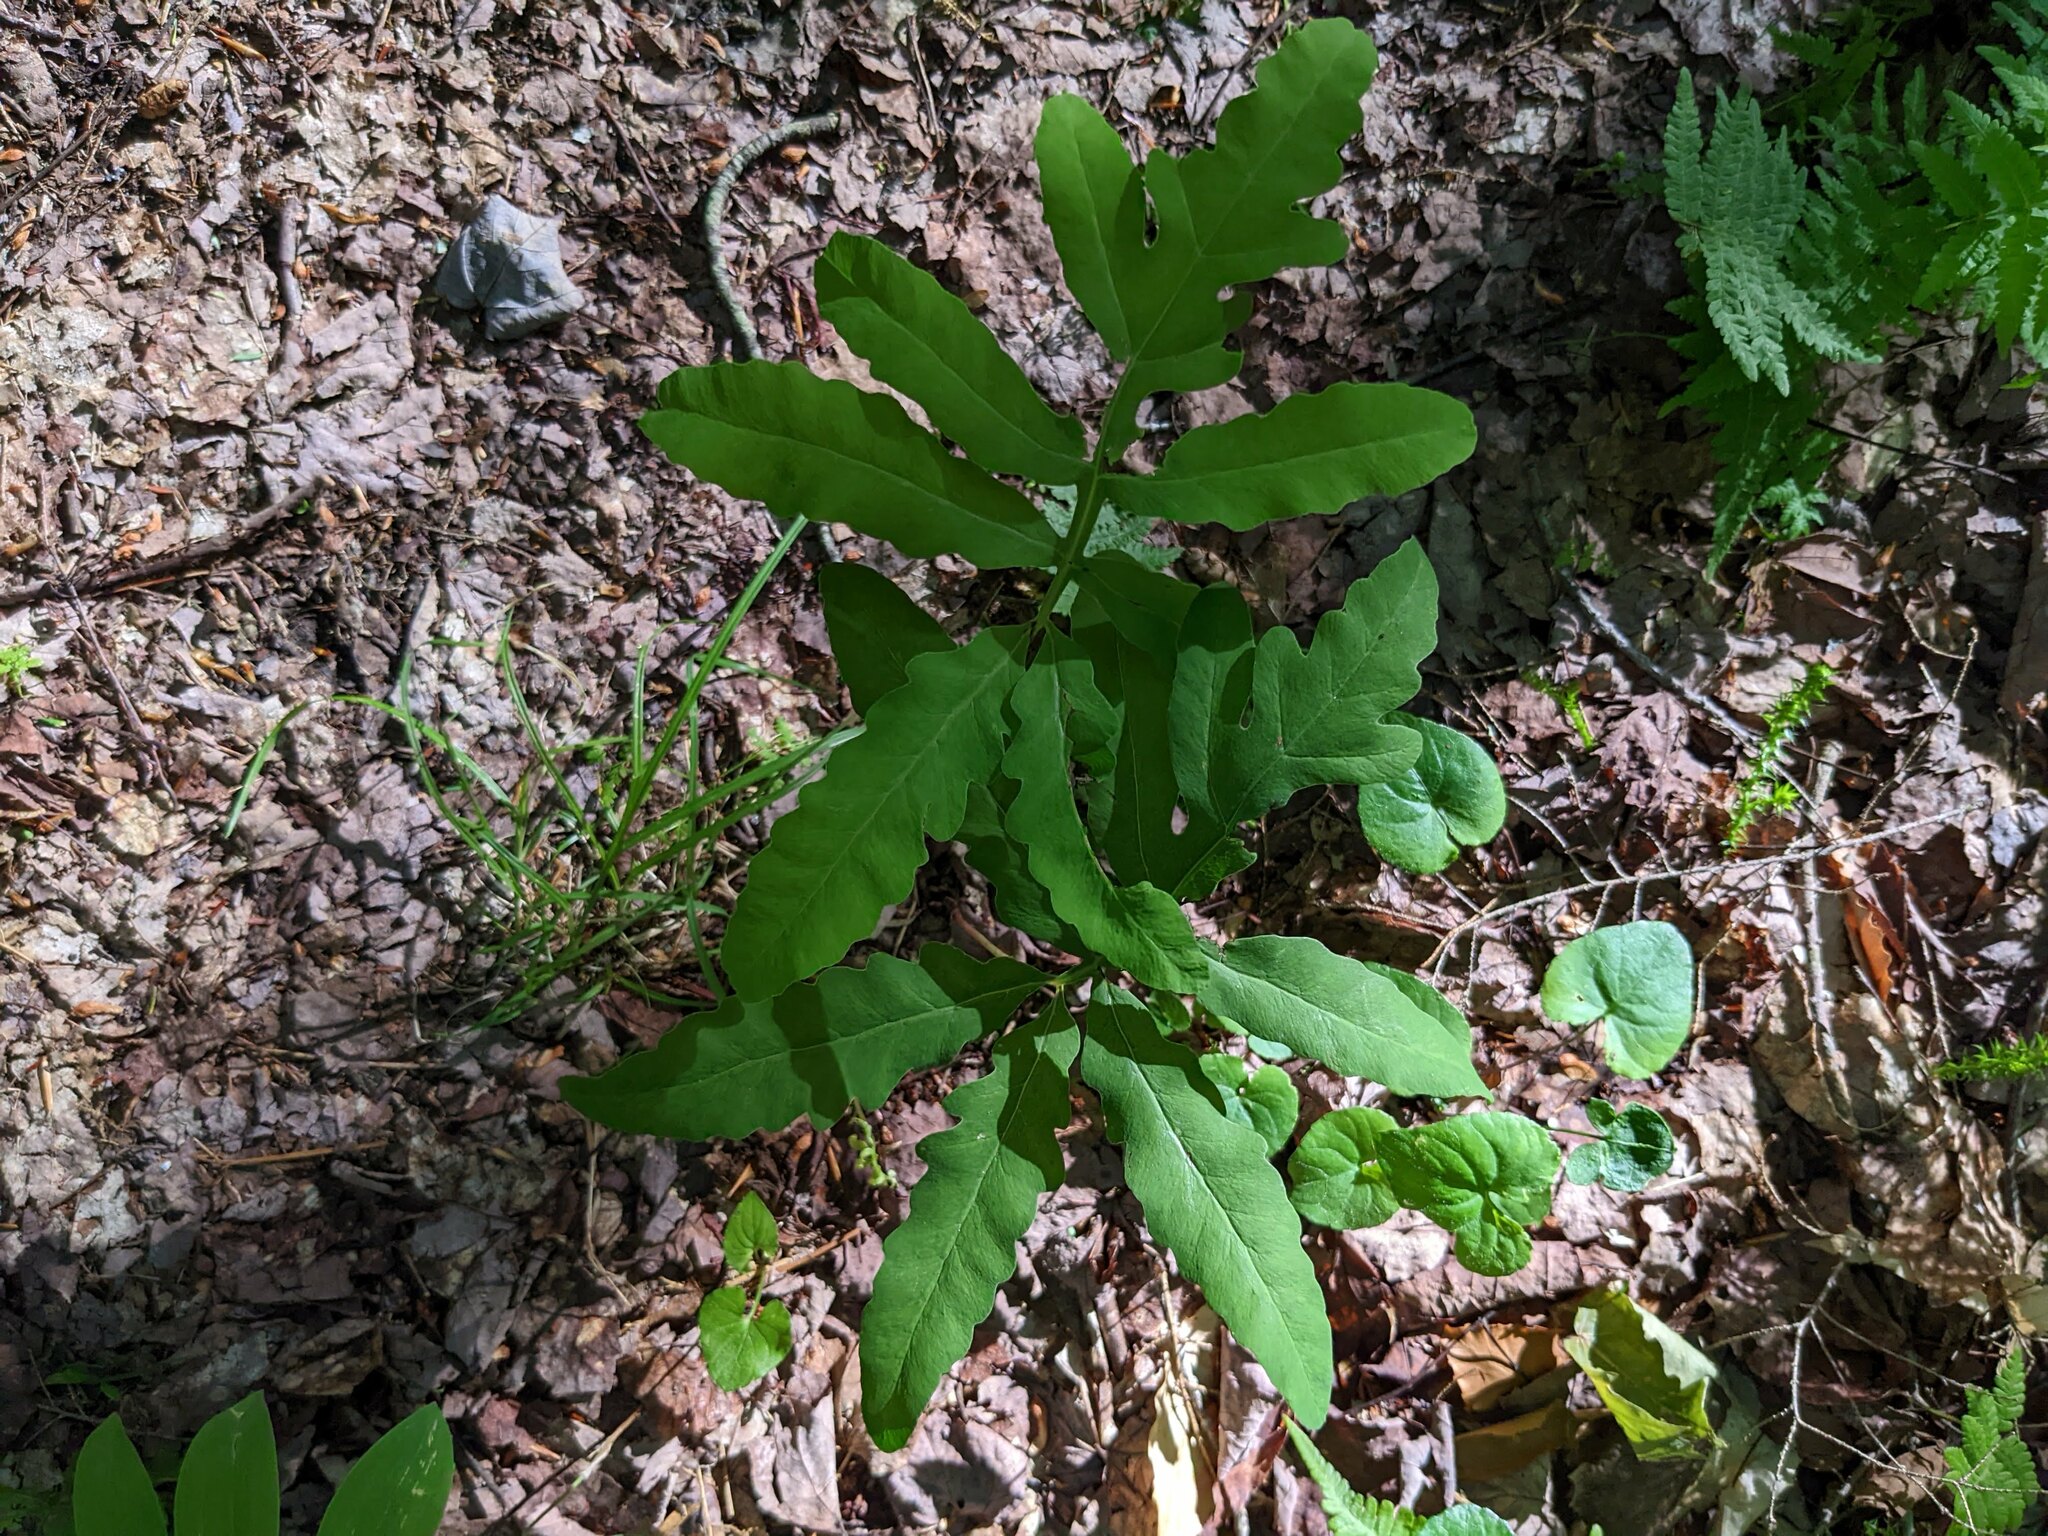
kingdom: Plantae
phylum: Tracheophyta
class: Polypodiopsida
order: Polypodiales
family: Onocleaceae
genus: Onoclea
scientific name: Onoclea sensibilis
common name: Sensitive fern
